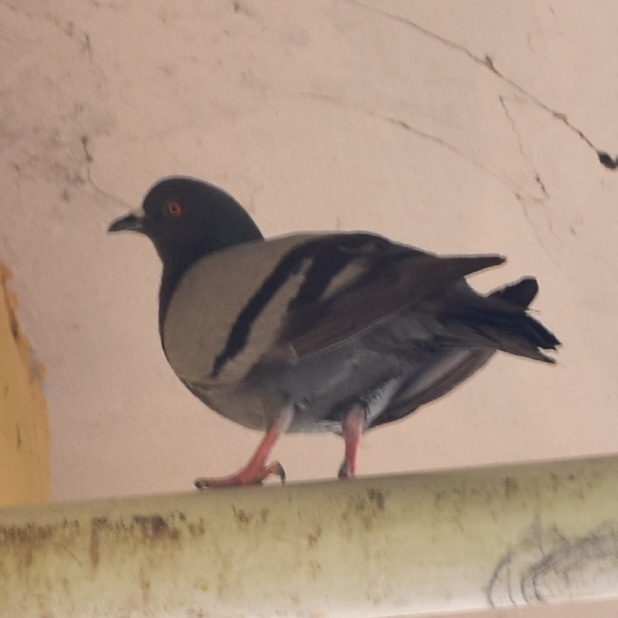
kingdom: Animalia
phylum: Chordata
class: Aves
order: Columbiformes
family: Columbidae
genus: Columba
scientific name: Columba livia
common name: Rock pigeon
